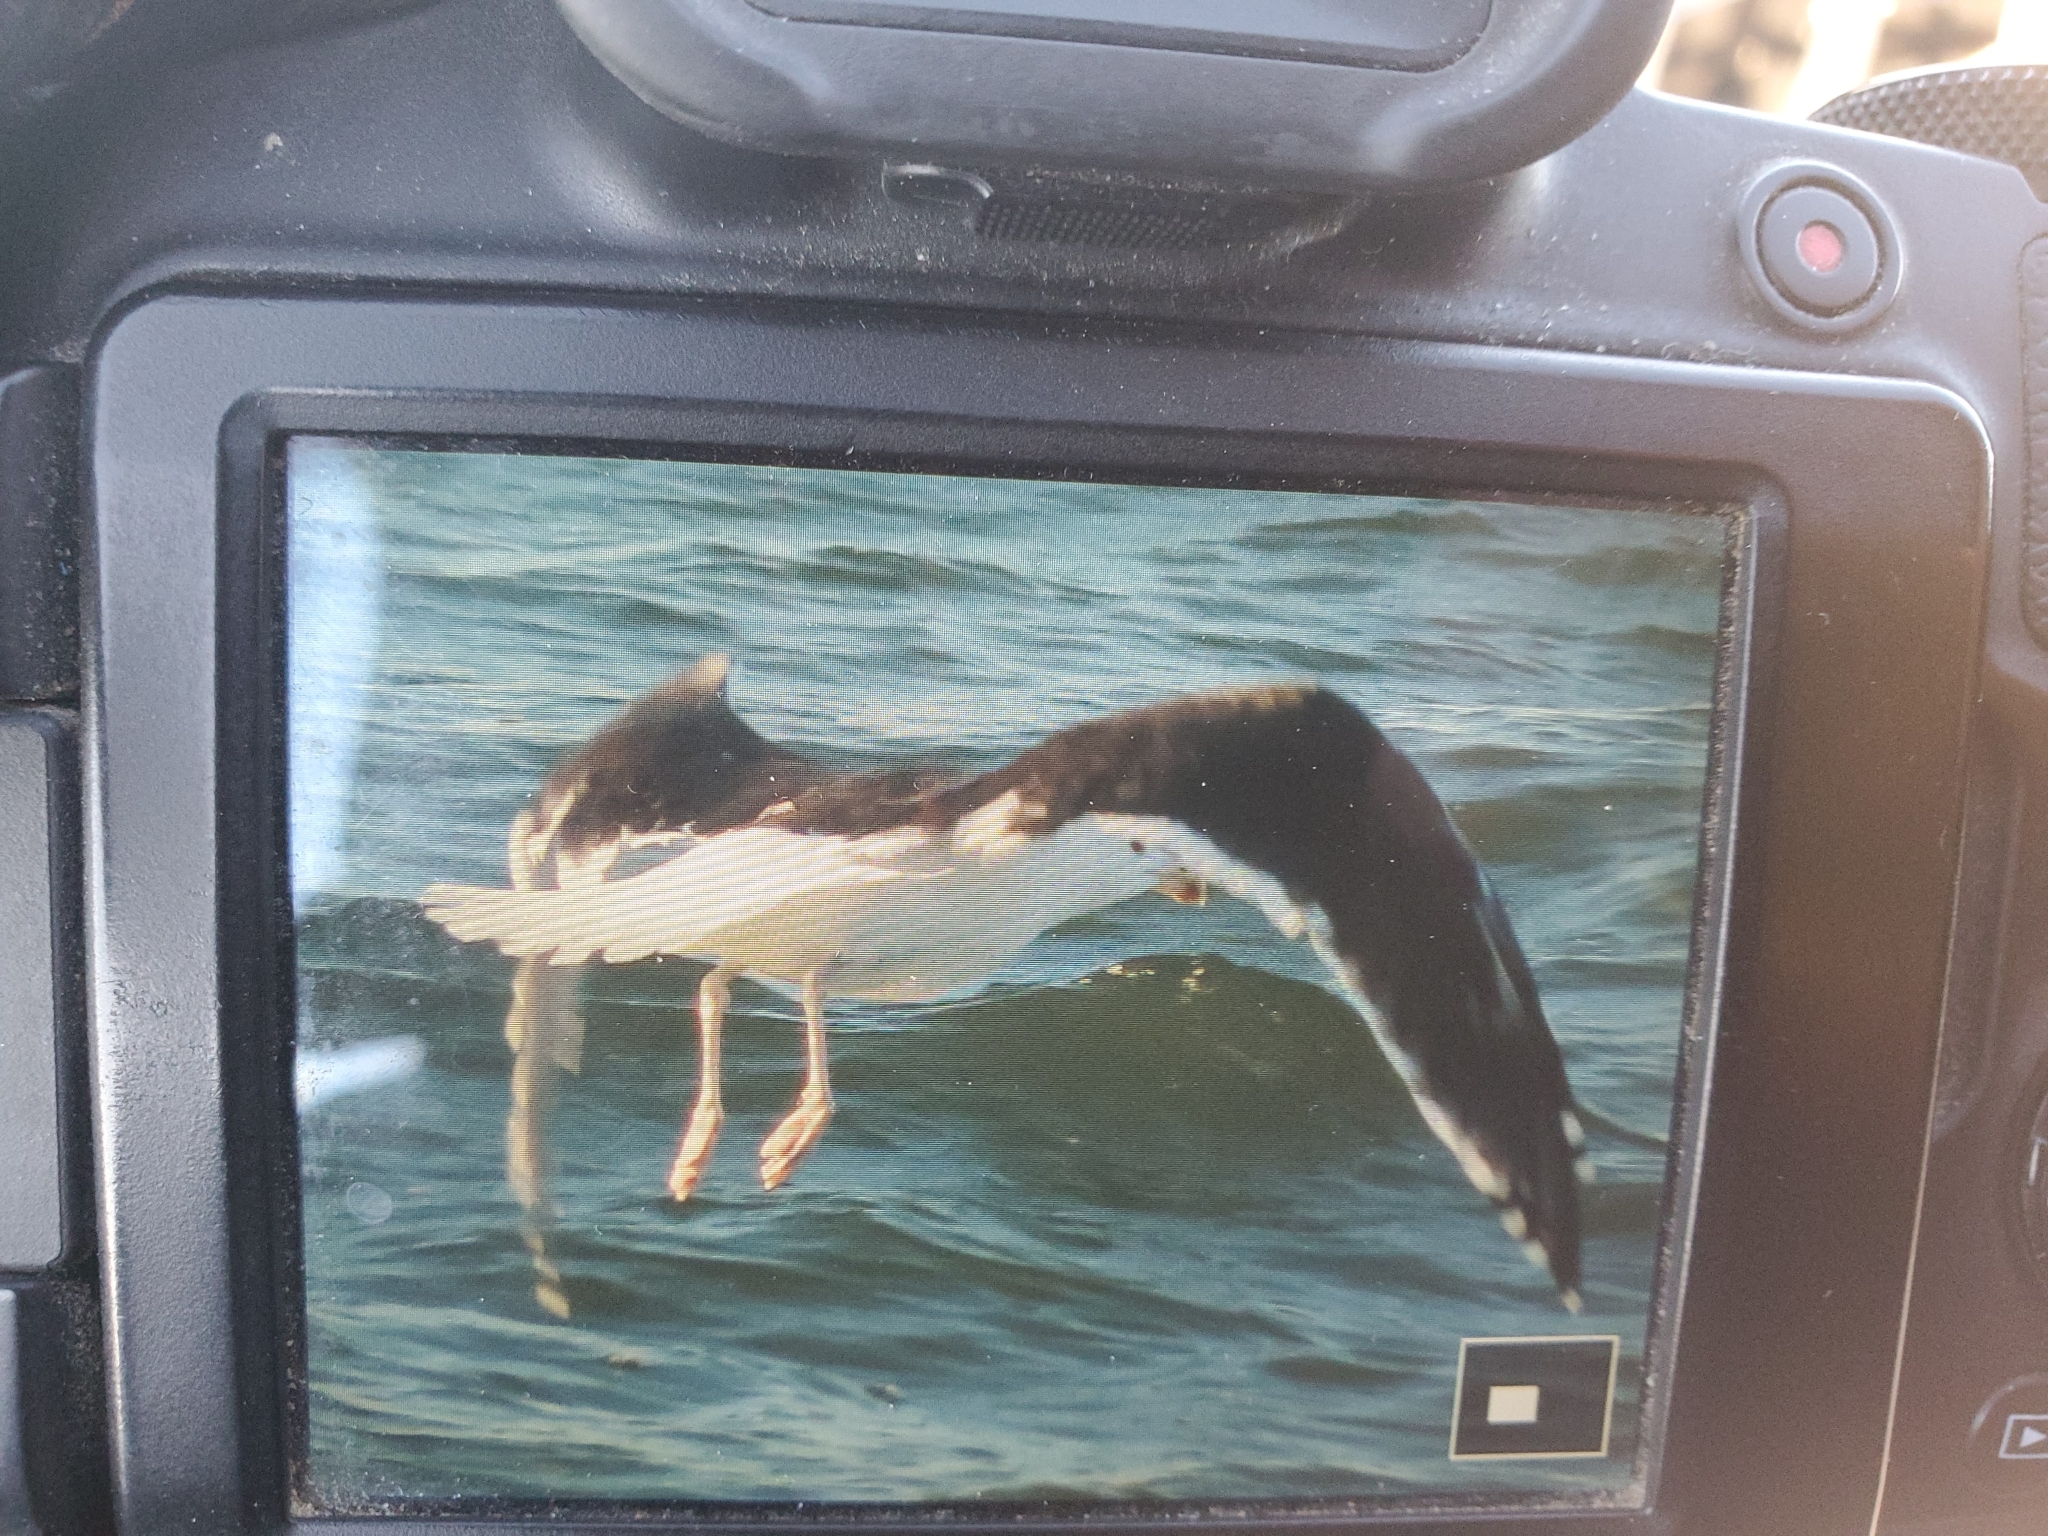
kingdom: Animalia
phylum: Chordata
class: Aves
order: Charadriiformes
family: Laridae
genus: Larus
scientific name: Larus marinus
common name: Great black-backed gull
